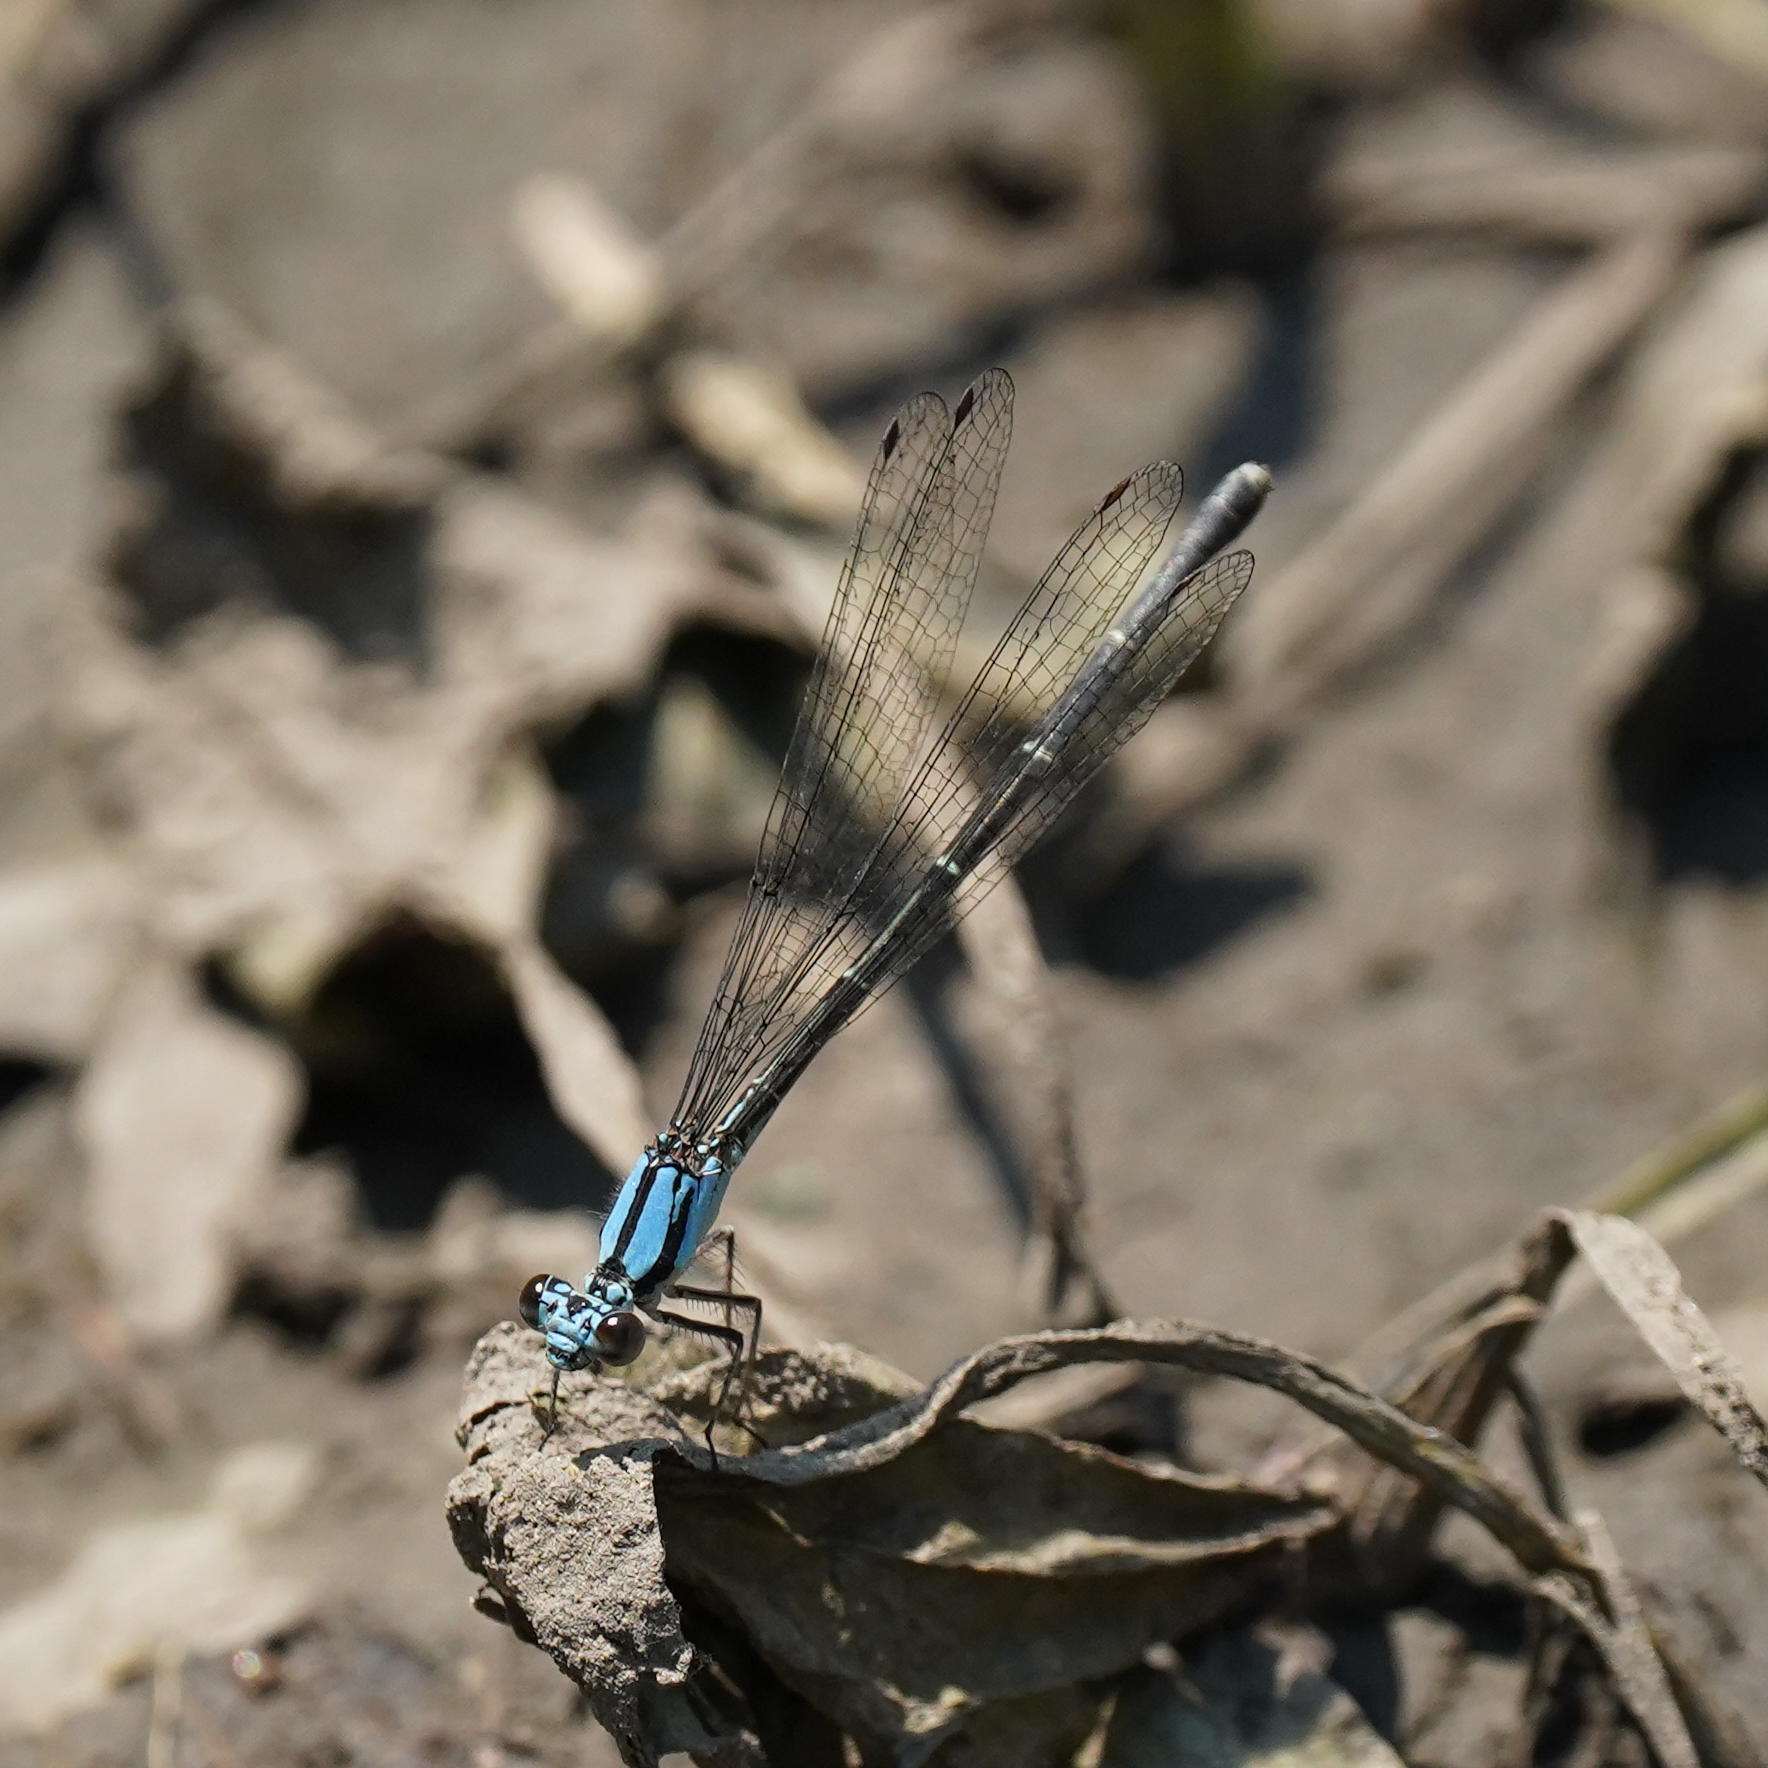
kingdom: Animalia
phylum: Arthropoda
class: Insecta
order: Odonata
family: Coenagrionidae
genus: Argia
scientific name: Argia tibialis
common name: Blue-tipped dancer
